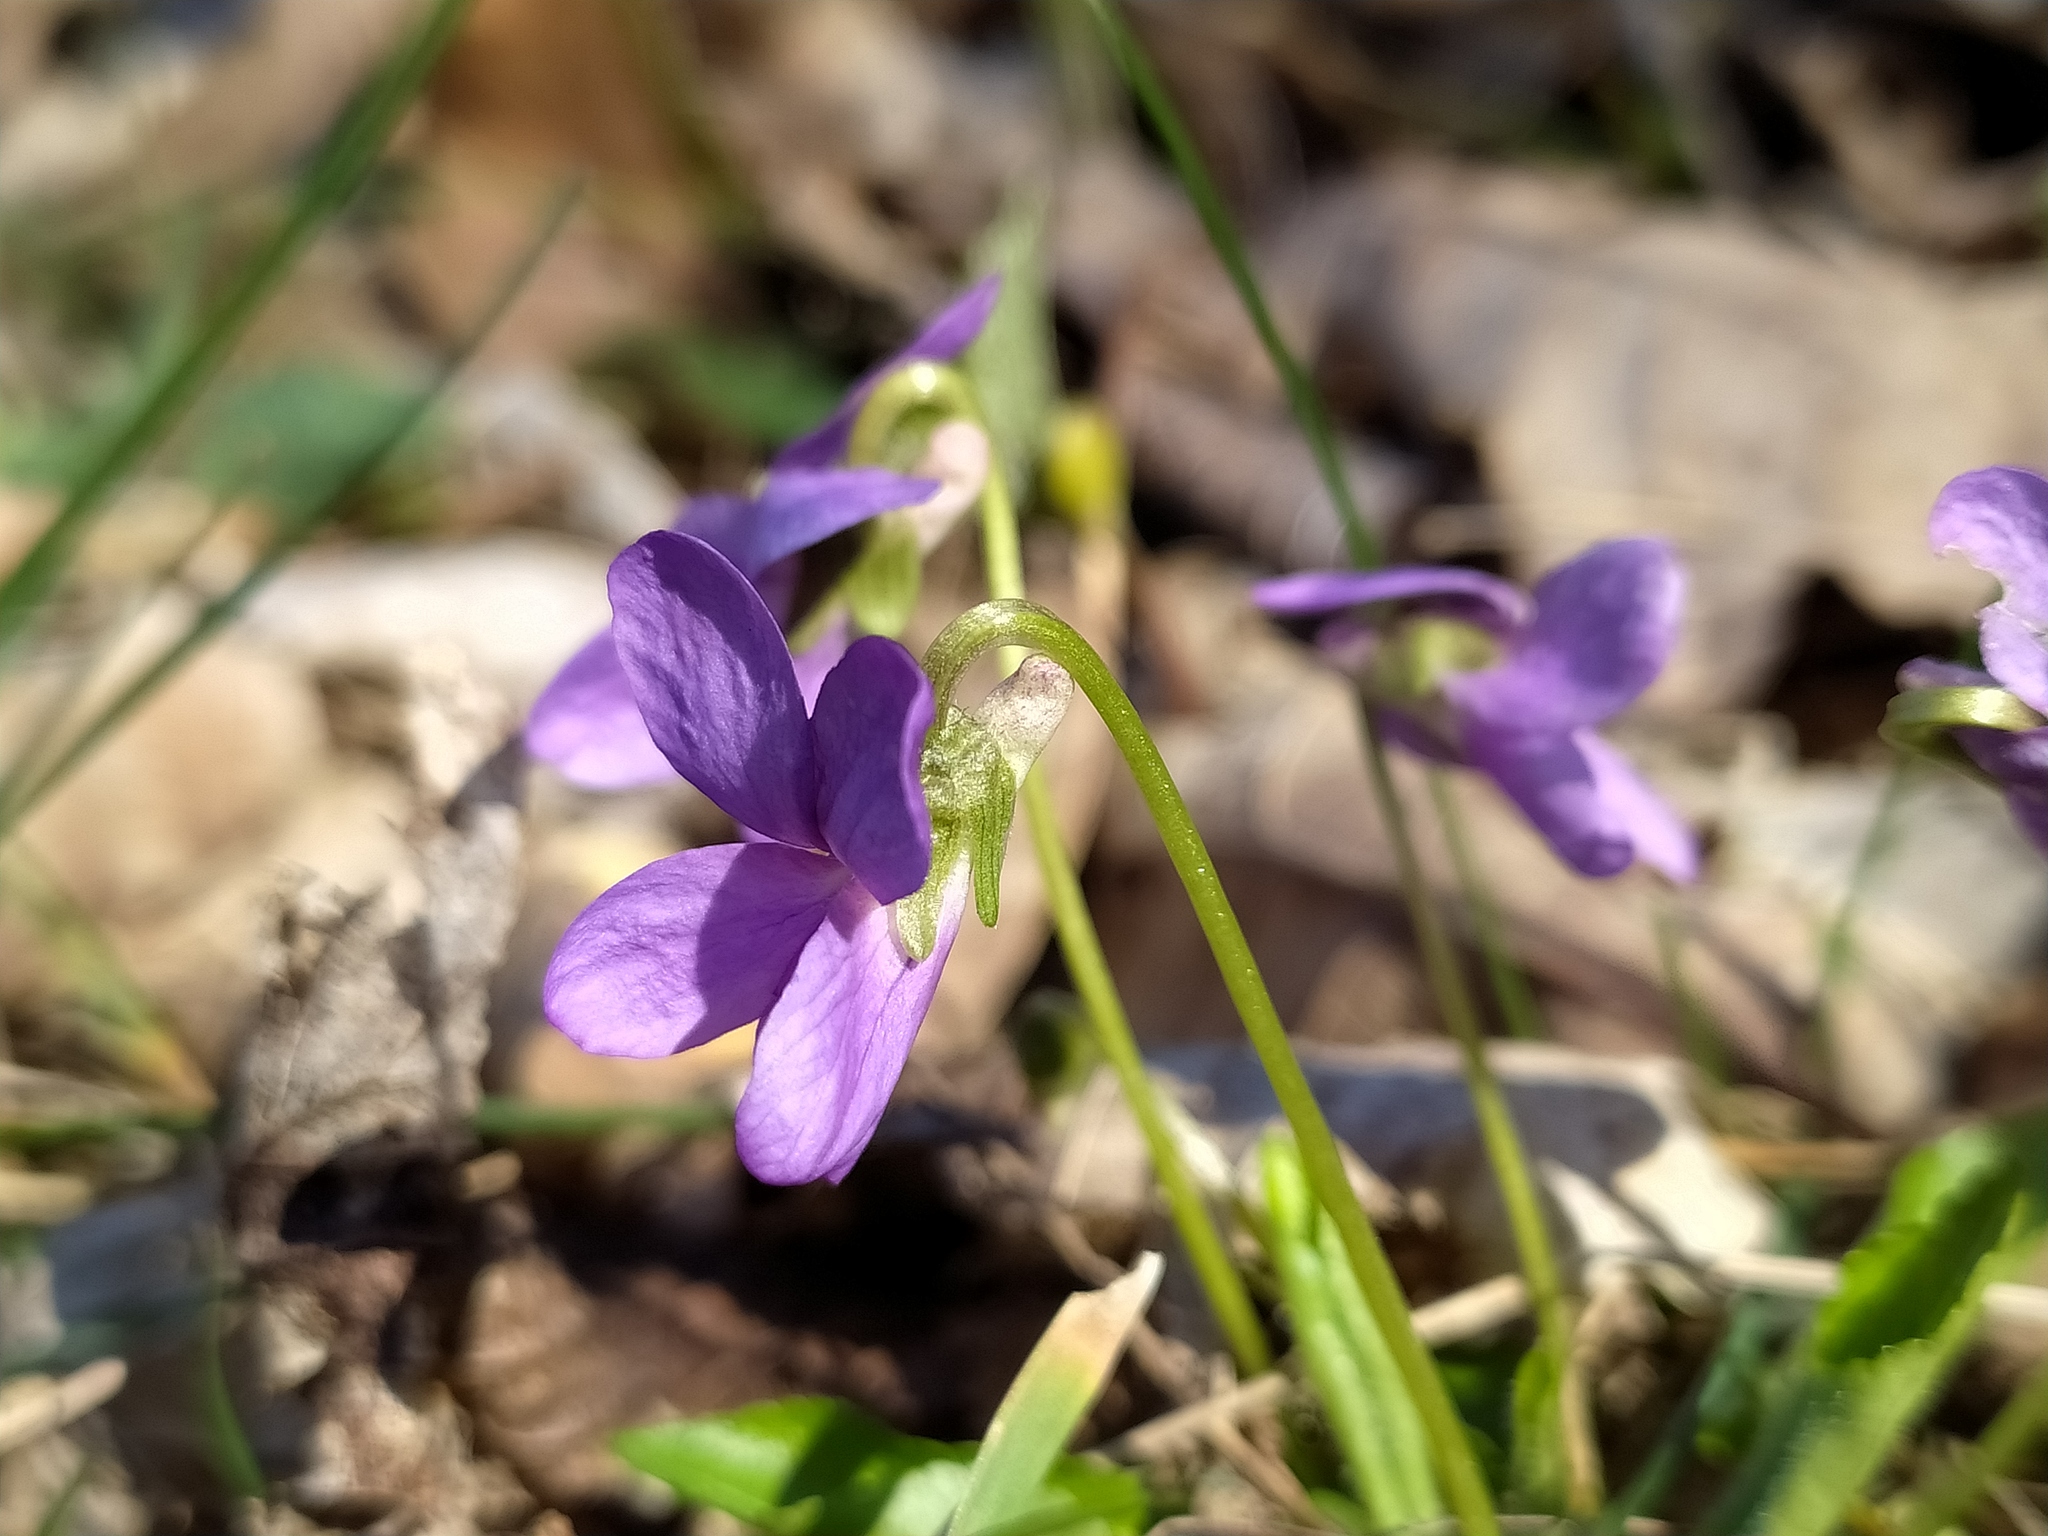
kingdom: Plantae
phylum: Tracheophyta
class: Magnoliopsida
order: Malpighiales
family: Violaceae
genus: Viola
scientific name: Viola hirta
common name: Hairy violet
